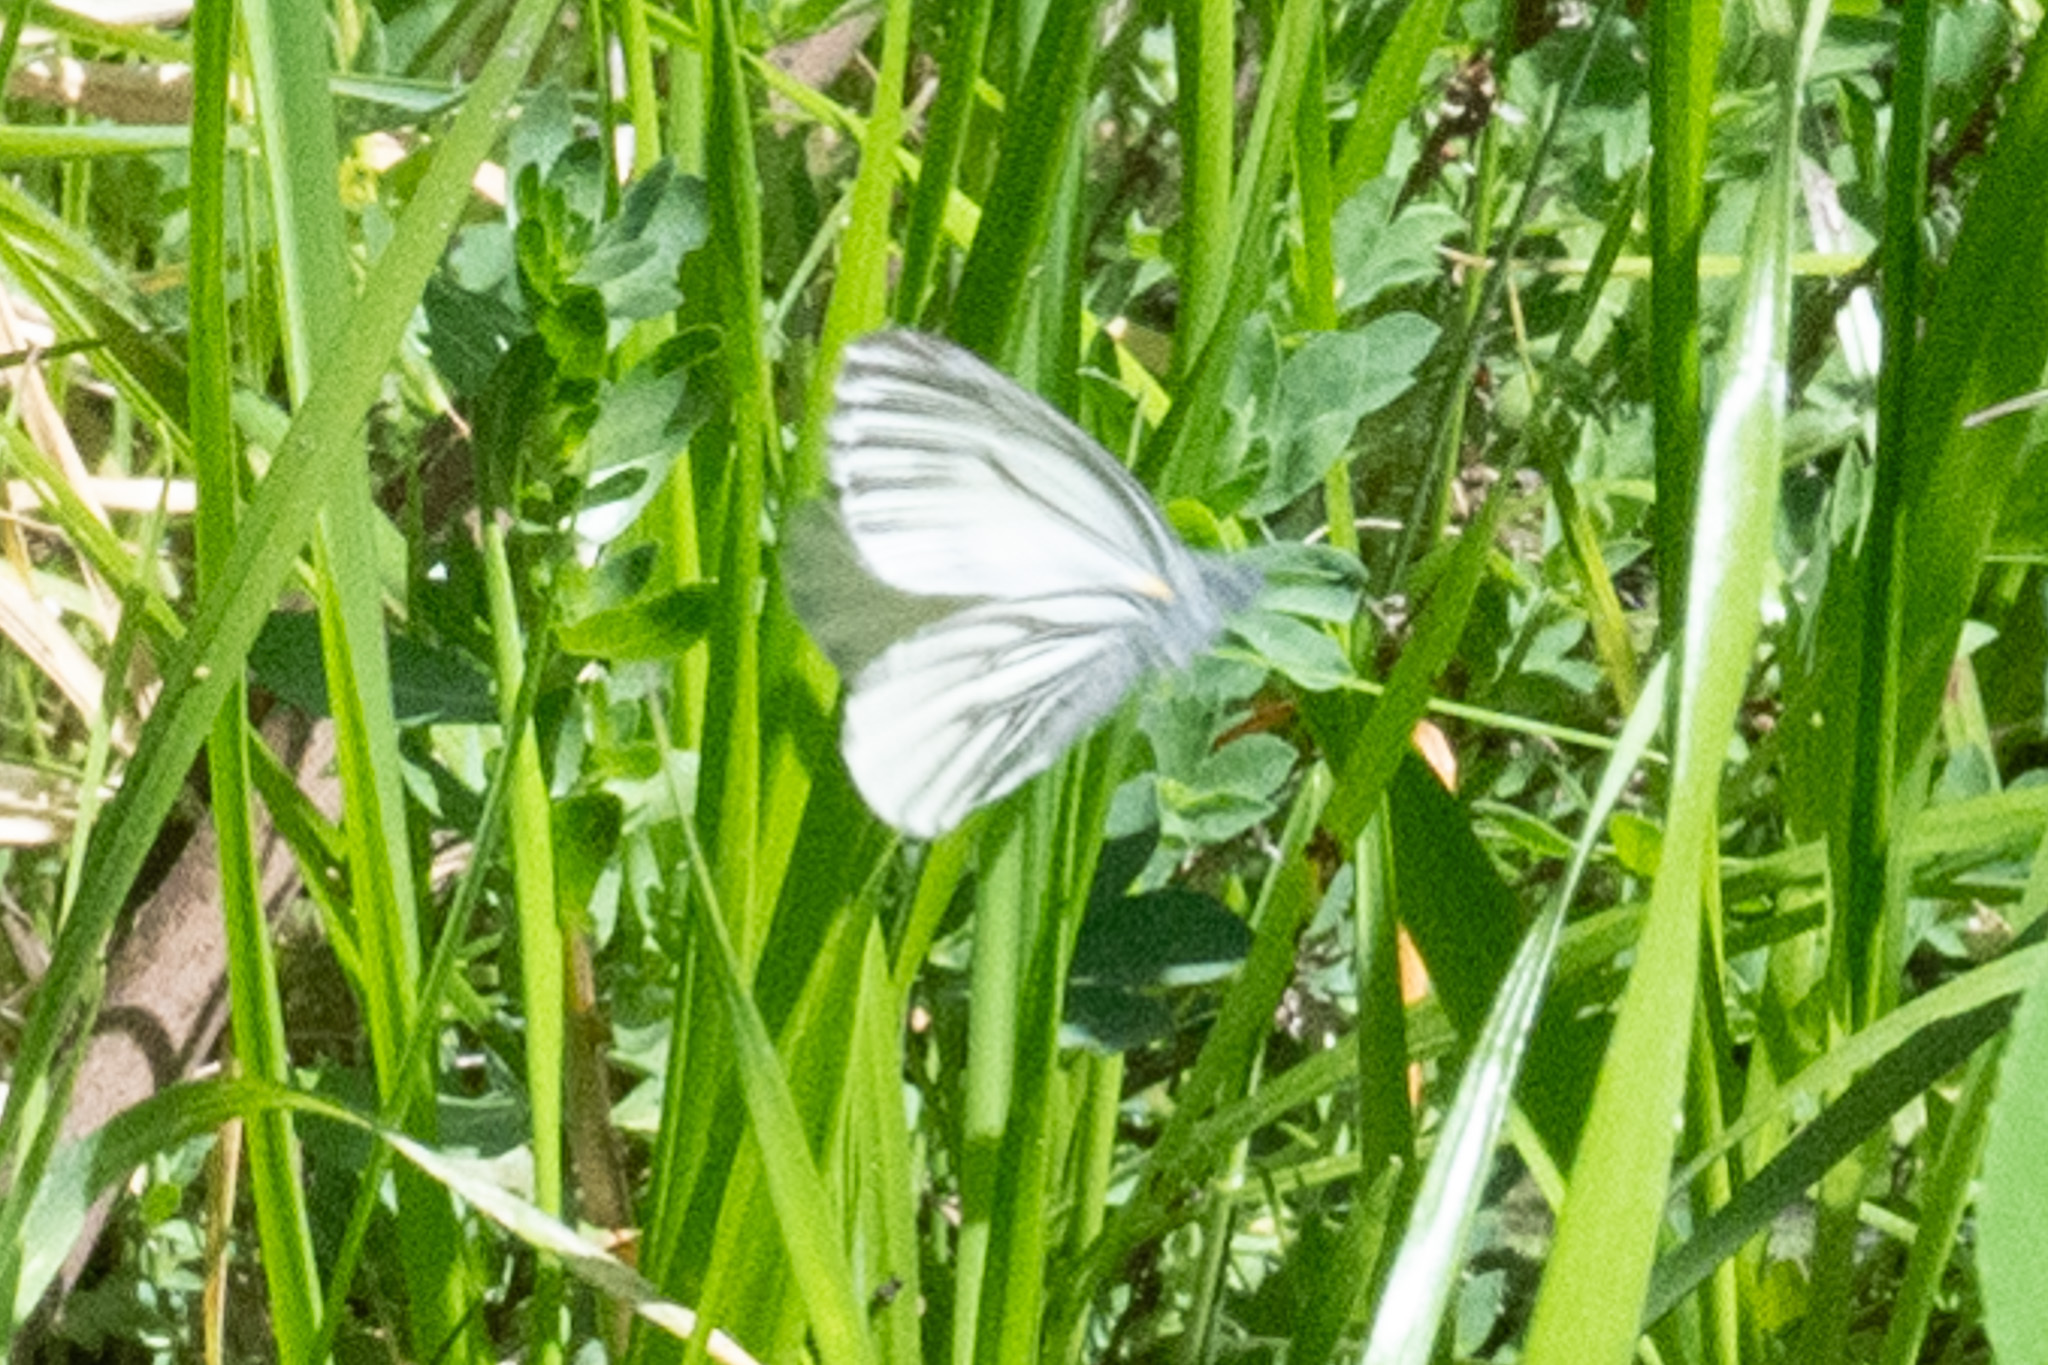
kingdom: Animalia
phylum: Arthropoda
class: Insecta
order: Lepidoptera
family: Pieridae
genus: Pieris
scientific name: Pieris marginalis
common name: Margined white
